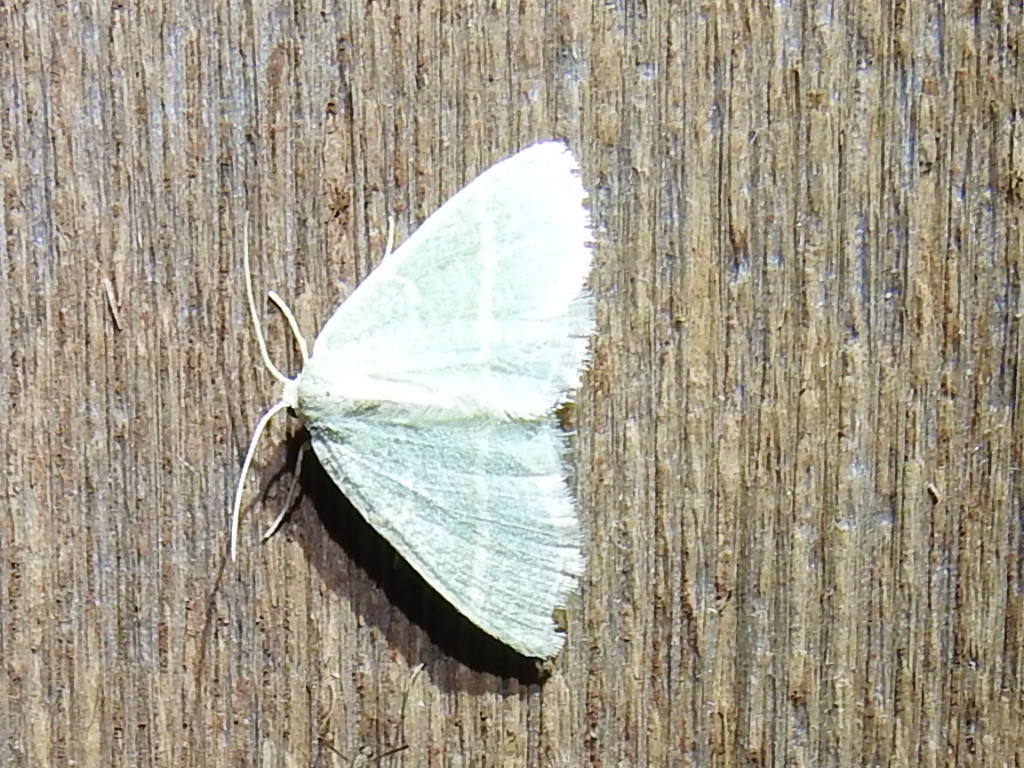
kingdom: Animalia
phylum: Arthropoda
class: Insecta
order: Lepidoptera
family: Geometridae
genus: Chlorochlamys
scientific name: Chlorochlamys chloroleucaria
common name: Blackberry looper
